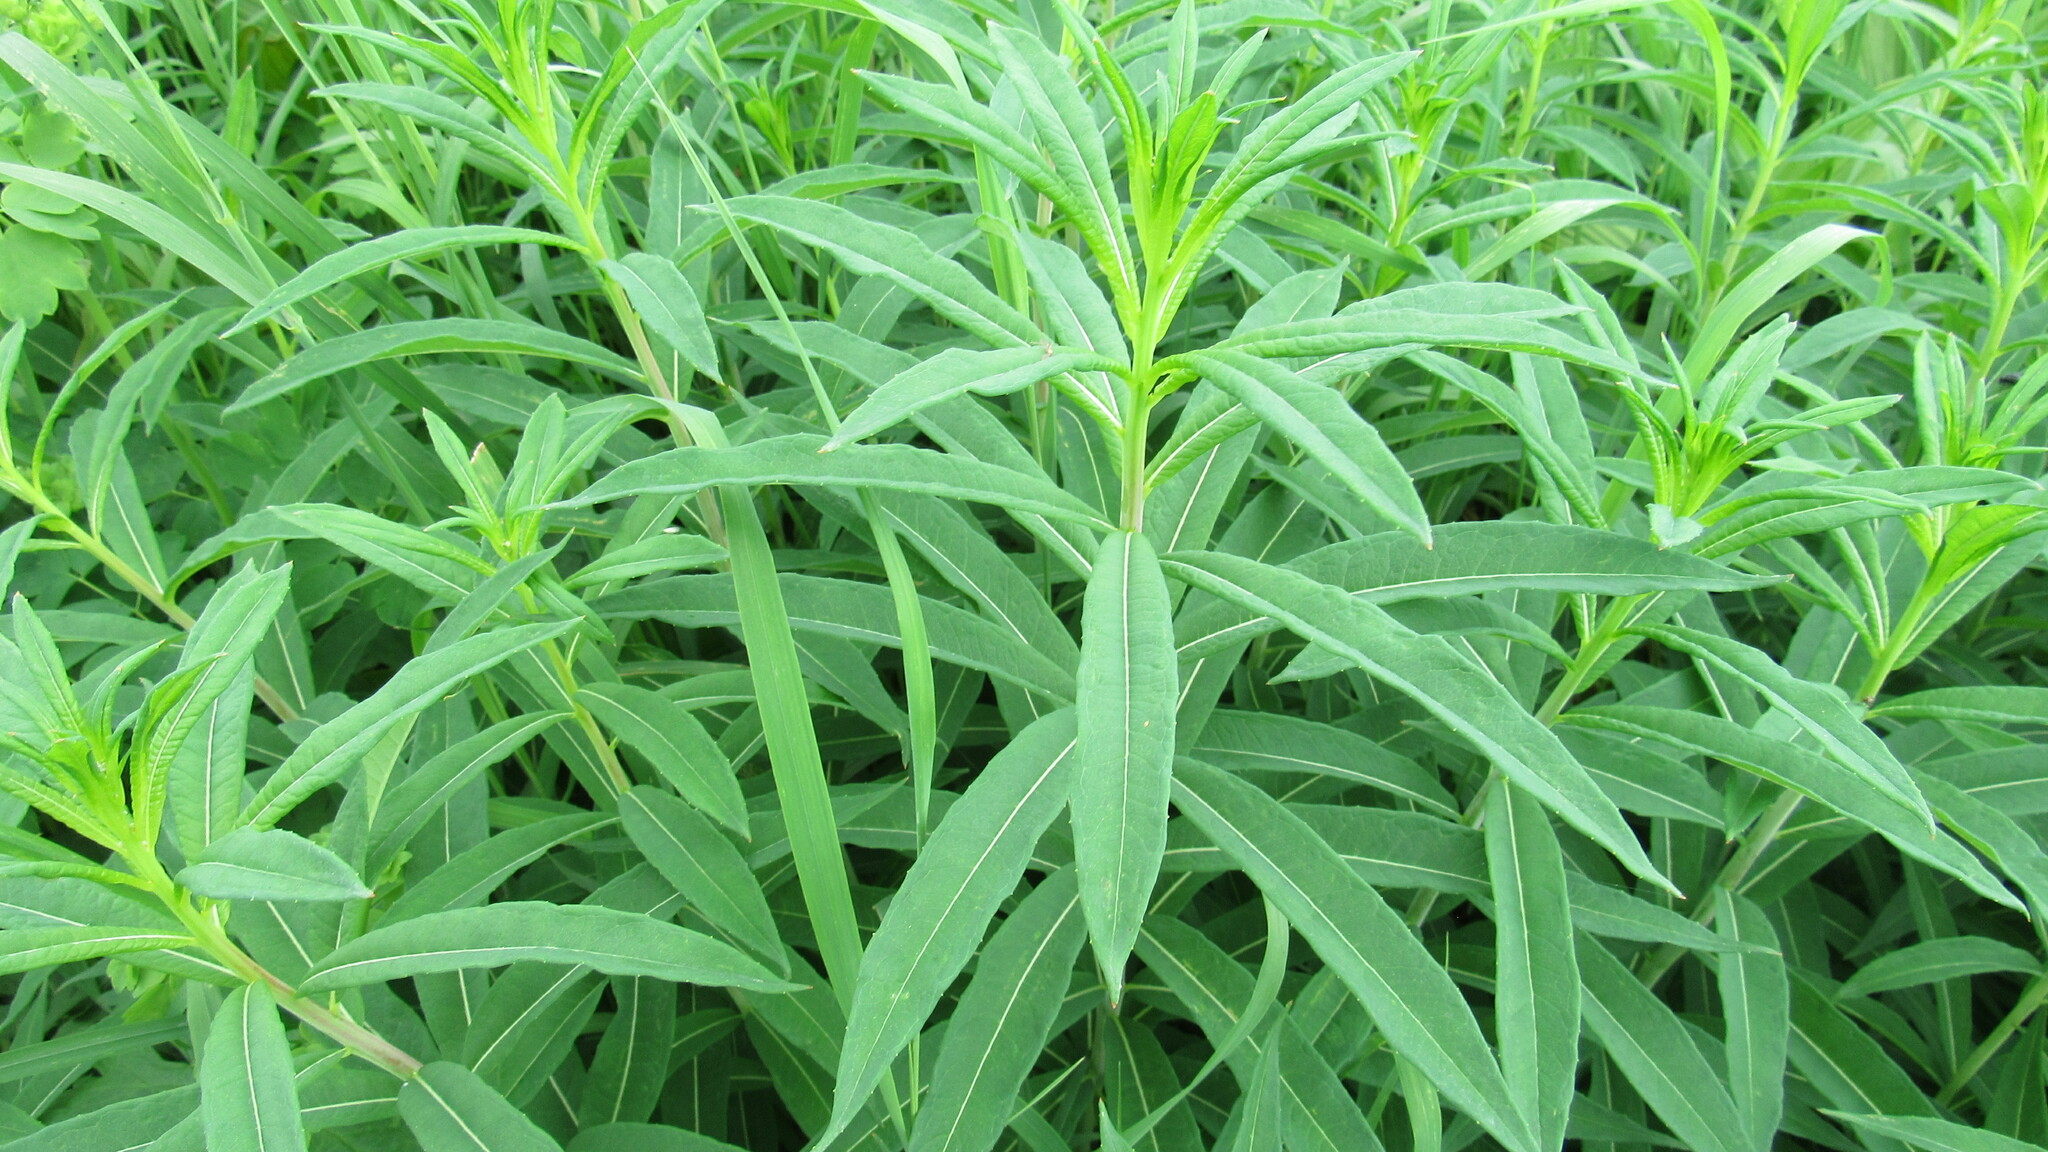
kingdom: Plantae
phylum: Tracheophyta
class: Magnoliopsida
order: Myrtales
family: Onagraceae
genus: Chamaenerion
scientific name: Chamaenerion angustifolium
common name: Fireweed
